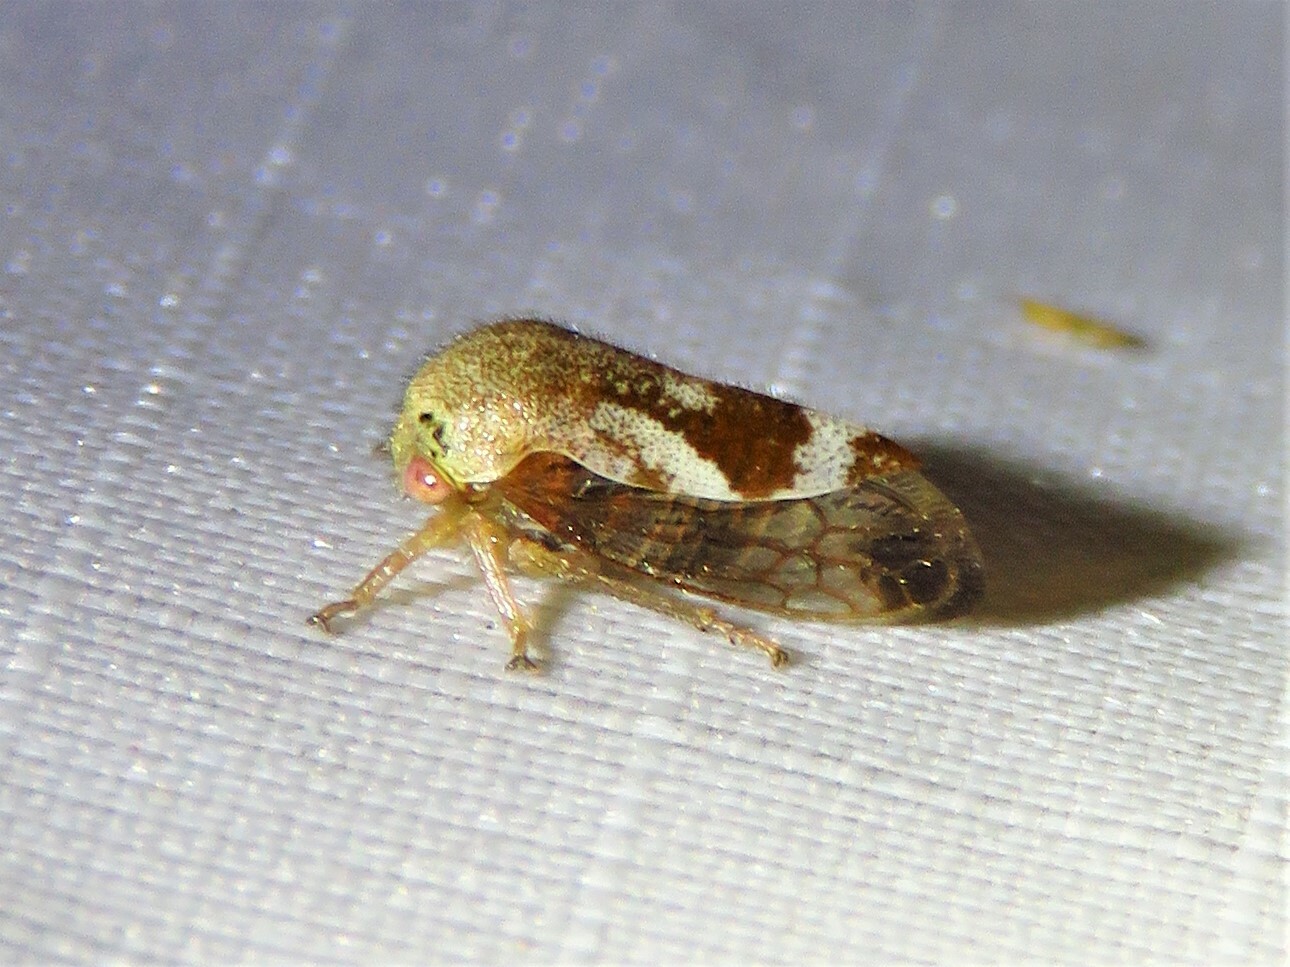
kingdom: Animalia
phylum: Arthropoda
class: Insecta
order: Hemiptera
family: Membracidae
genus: Ophiderma
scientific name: Ophiderma evelyna
